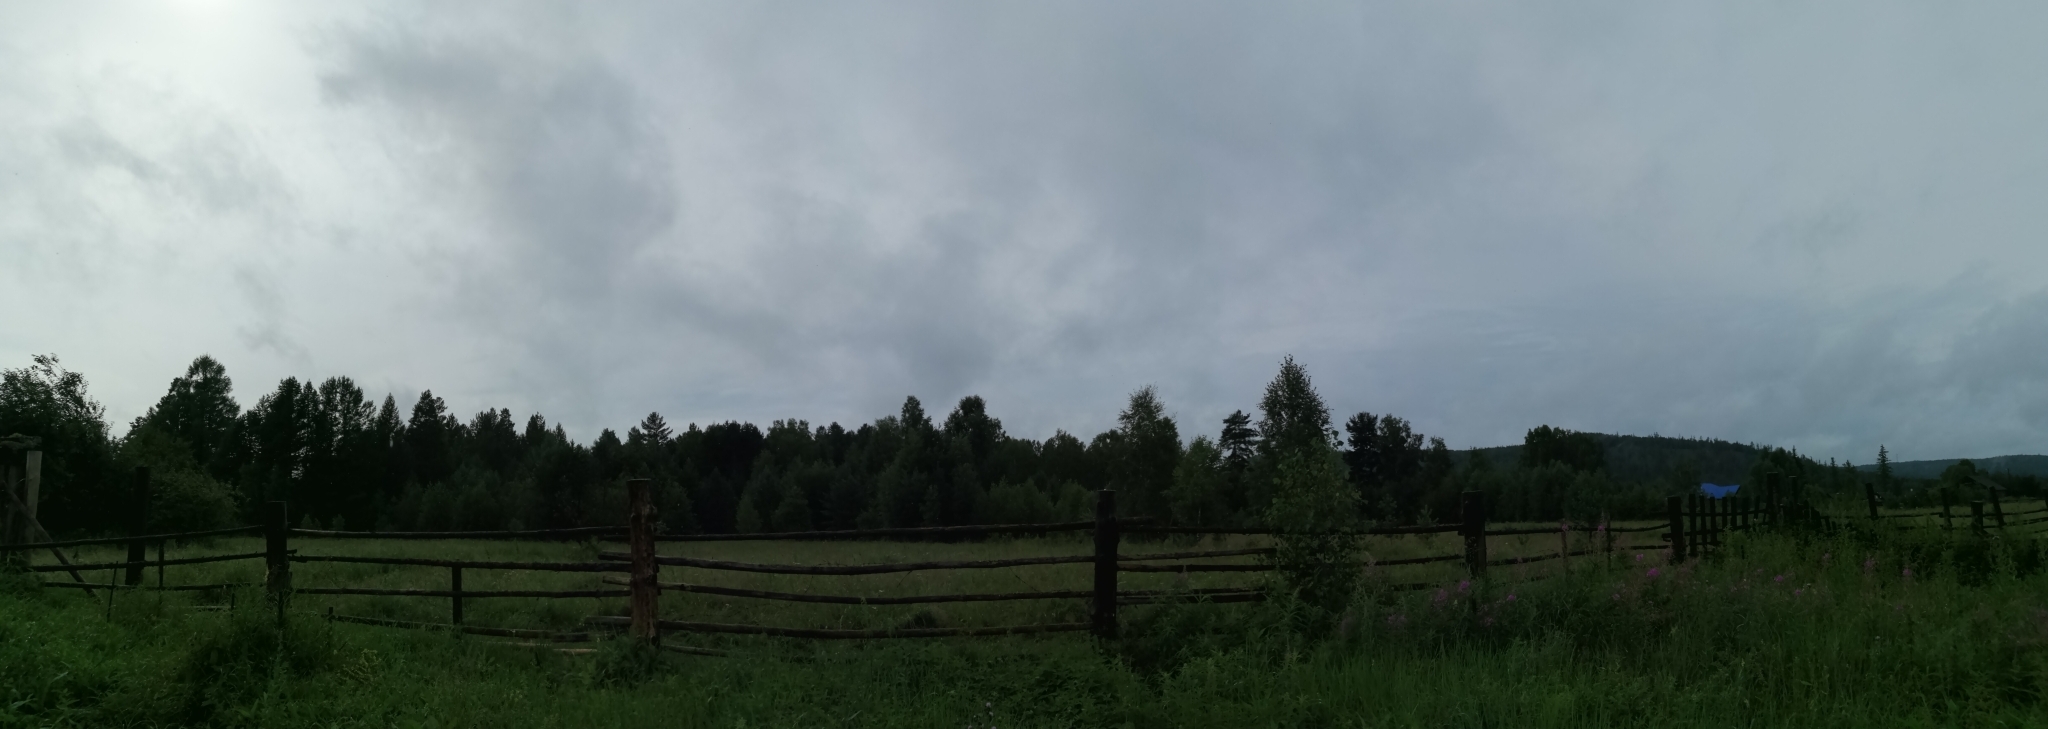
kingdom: Plantae
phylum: Tracheophyta
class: Magnoliopsida
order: Myrtales
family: Onagraceae
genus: Chamaenerion
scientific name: Chamaenerion angustifolium
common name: Fireweed
